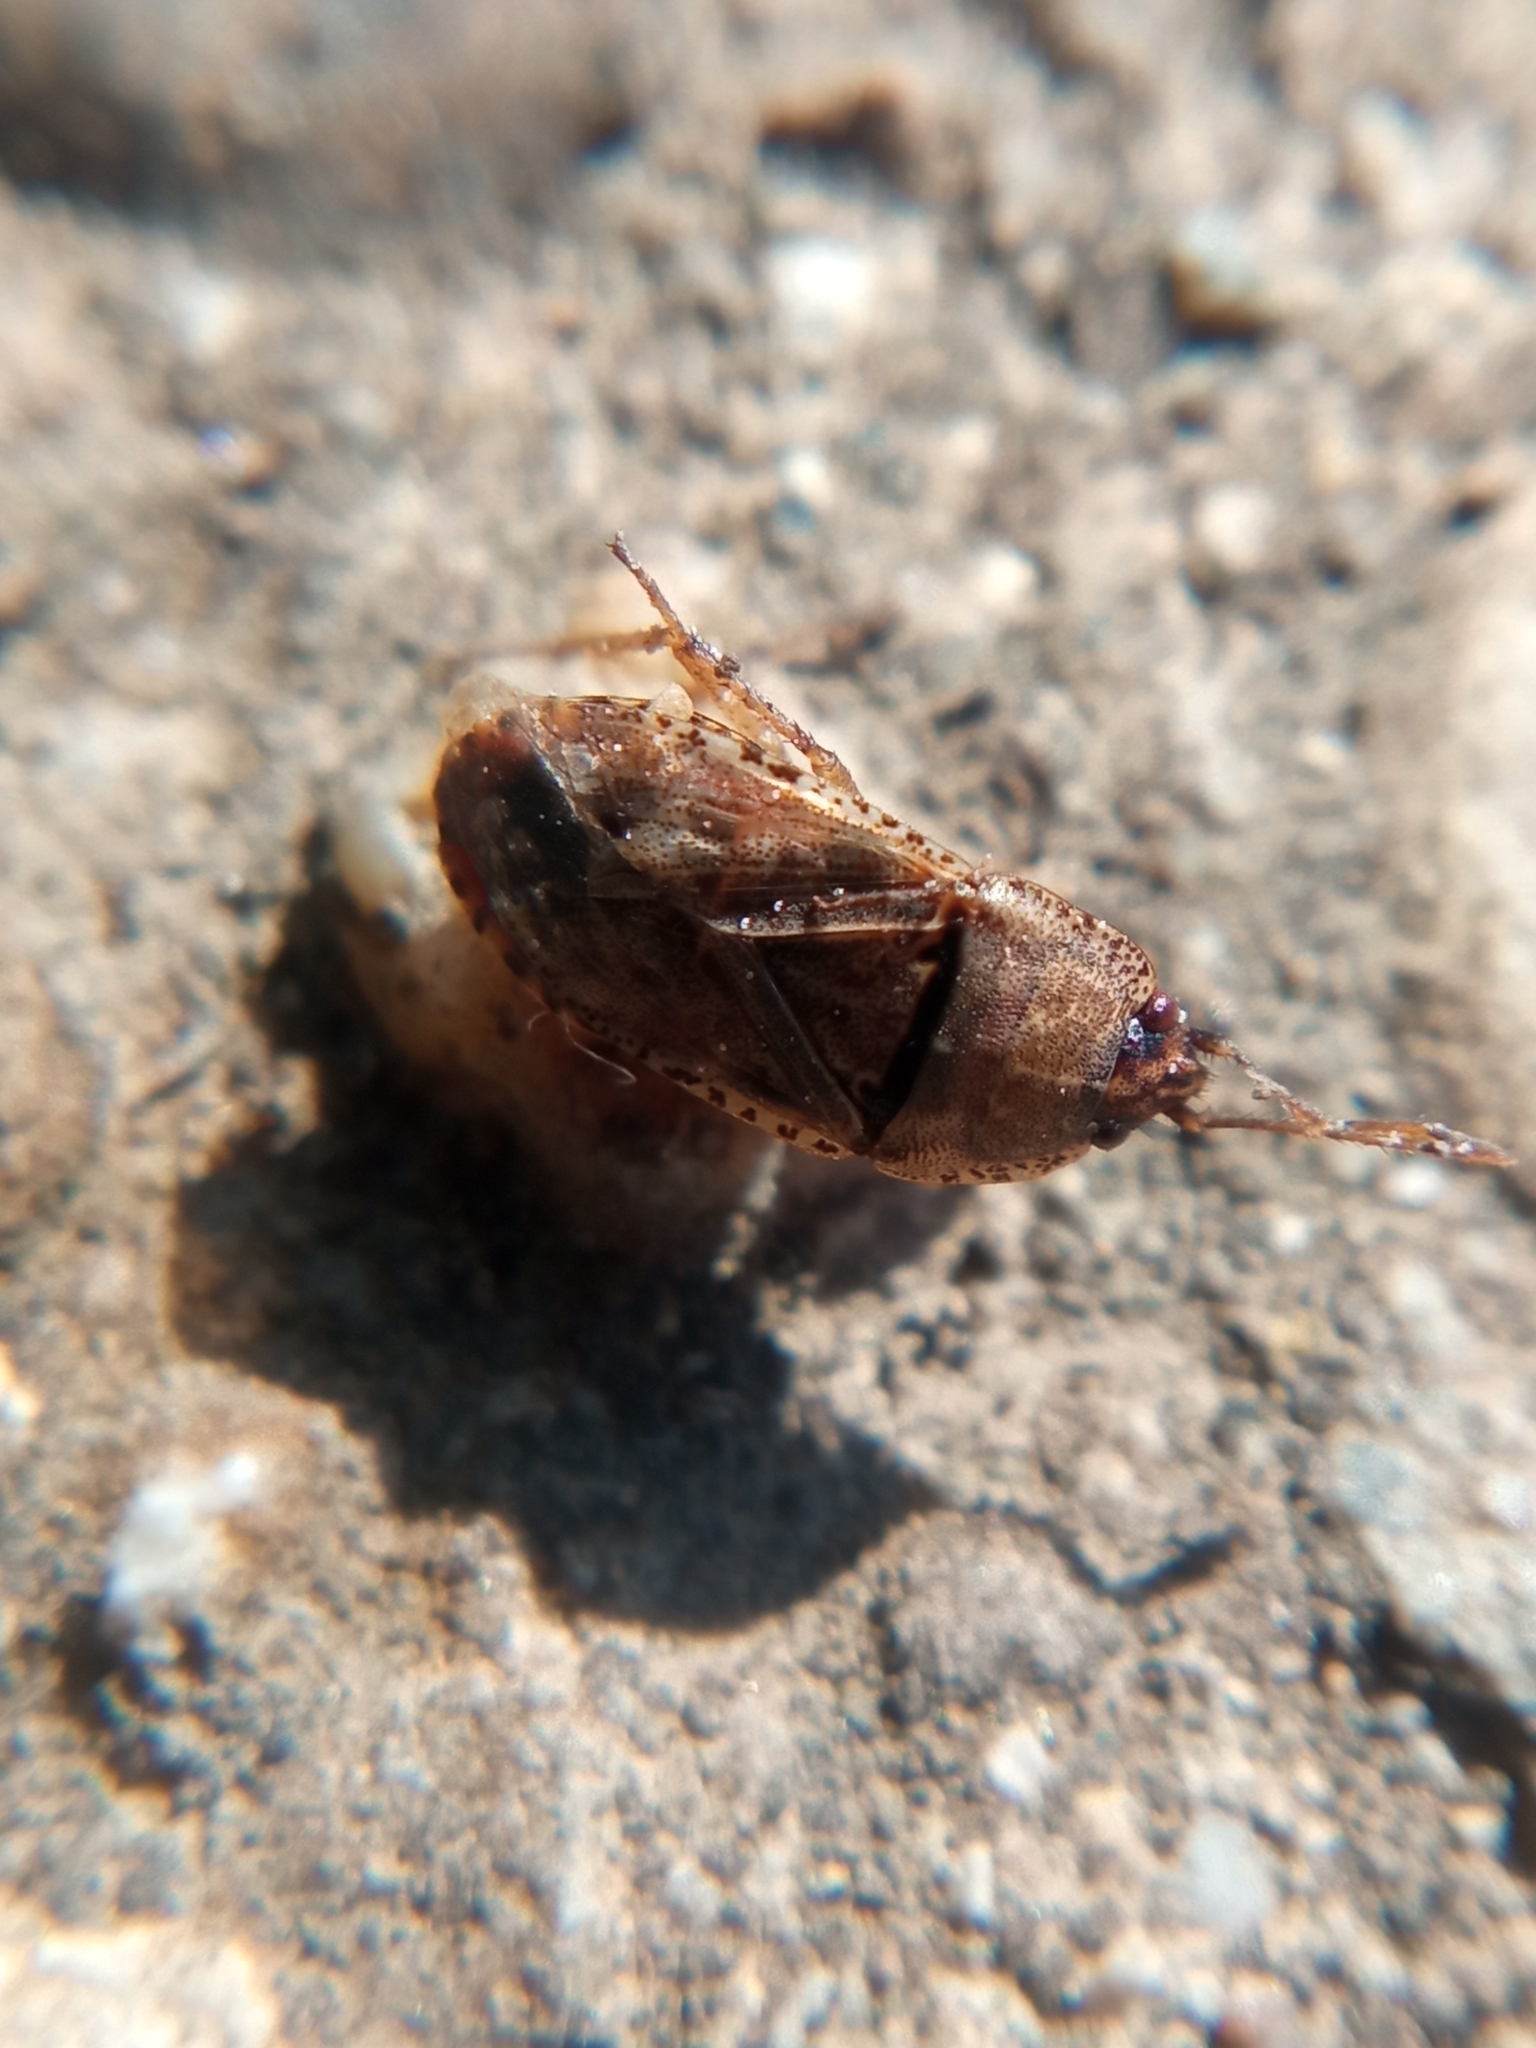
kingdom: Animalia
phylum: Arthropoda
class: Insecta
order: Hemiptera
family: Rhyparochromidae
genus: Gonianotus
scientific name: Gonianotus marginepunctatus
